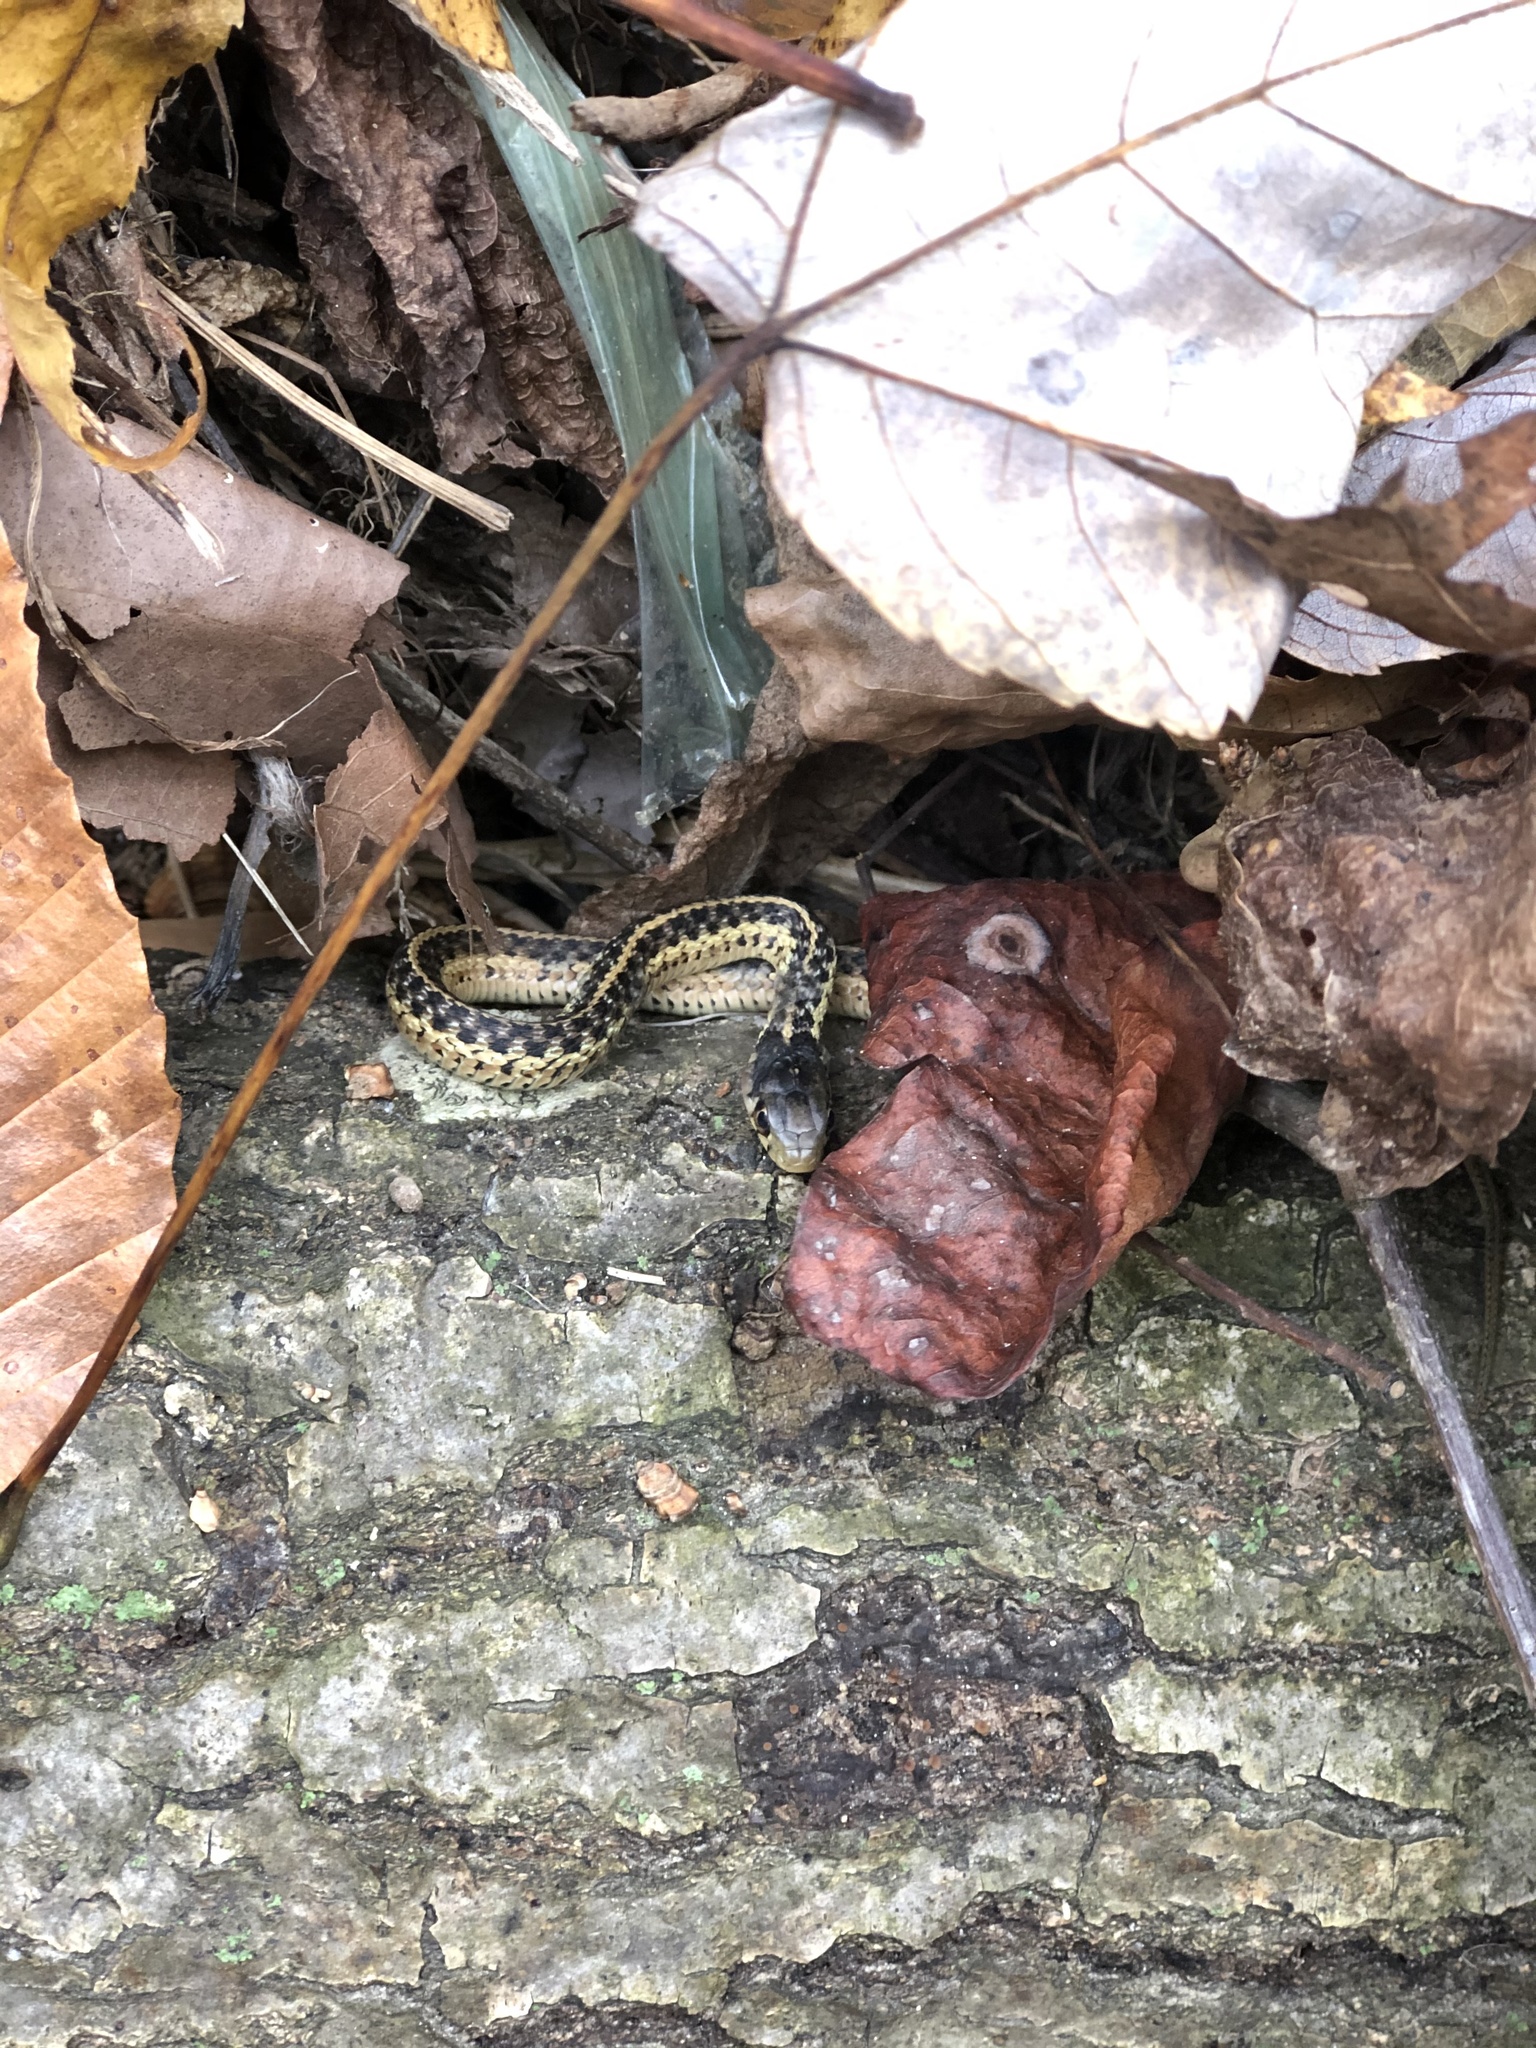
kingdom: Animalia
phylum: Chordata
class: Squamata
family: Colubridae
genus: Thamnophis
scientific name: Thamnophis sirtalis
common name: Common garter snake
